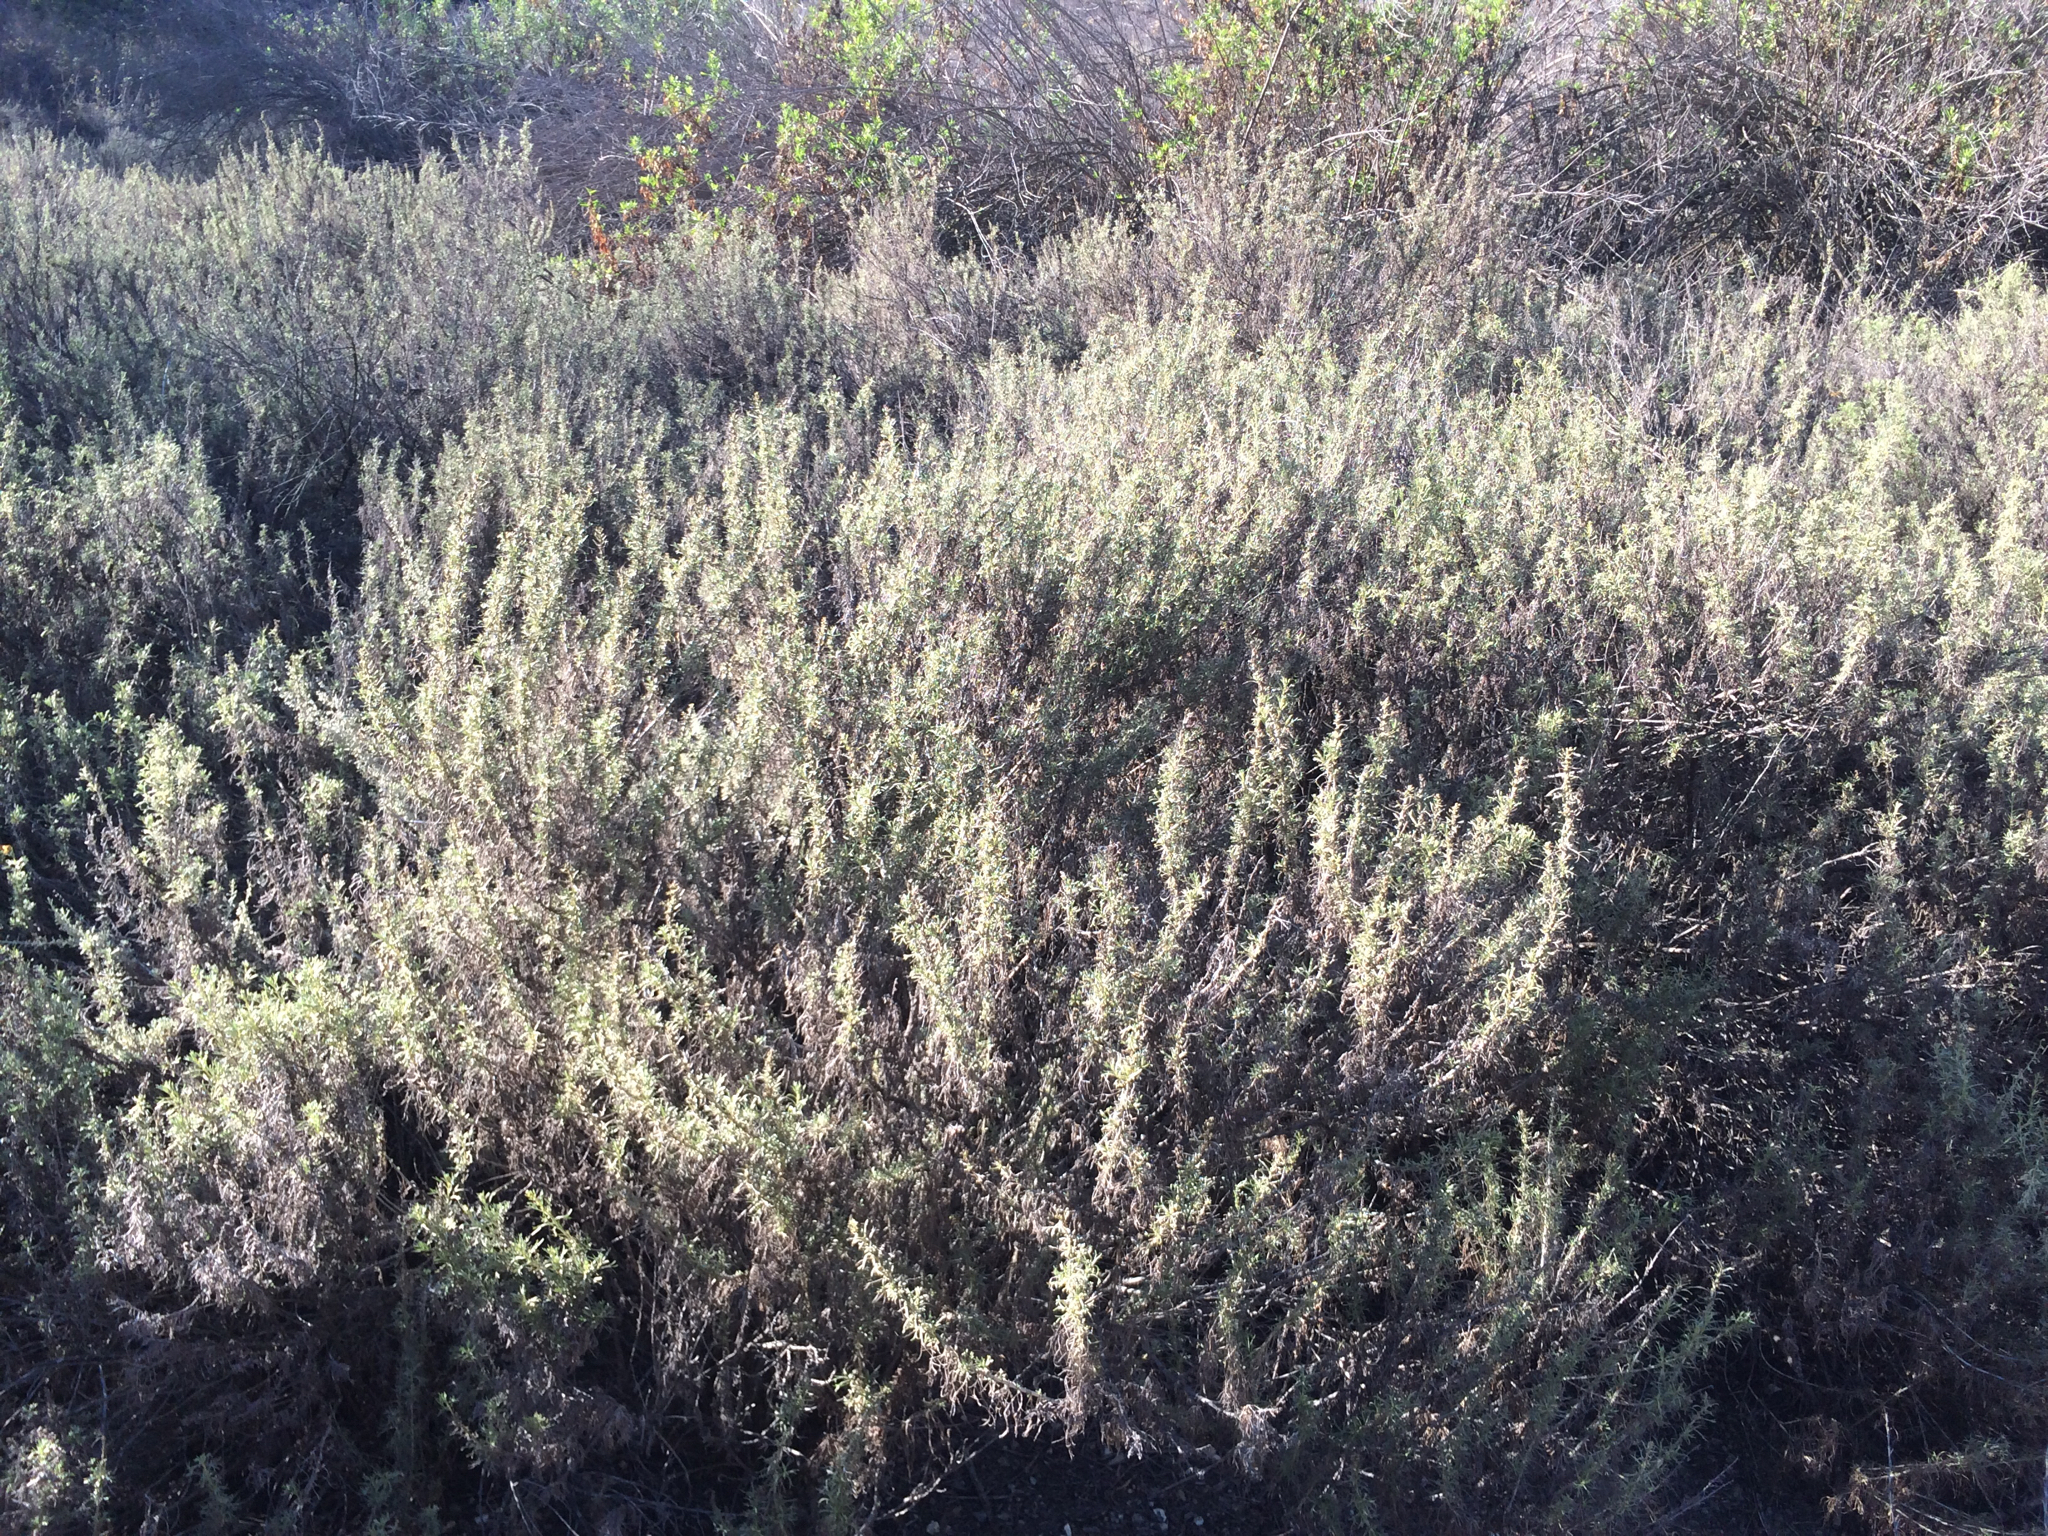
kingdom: Plantae
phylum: Tracheophyta
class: Magnoliopsida
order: Asterales
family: Asteraceae
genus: Artemisia
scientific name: Artemisia californica
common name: California sagebrush
